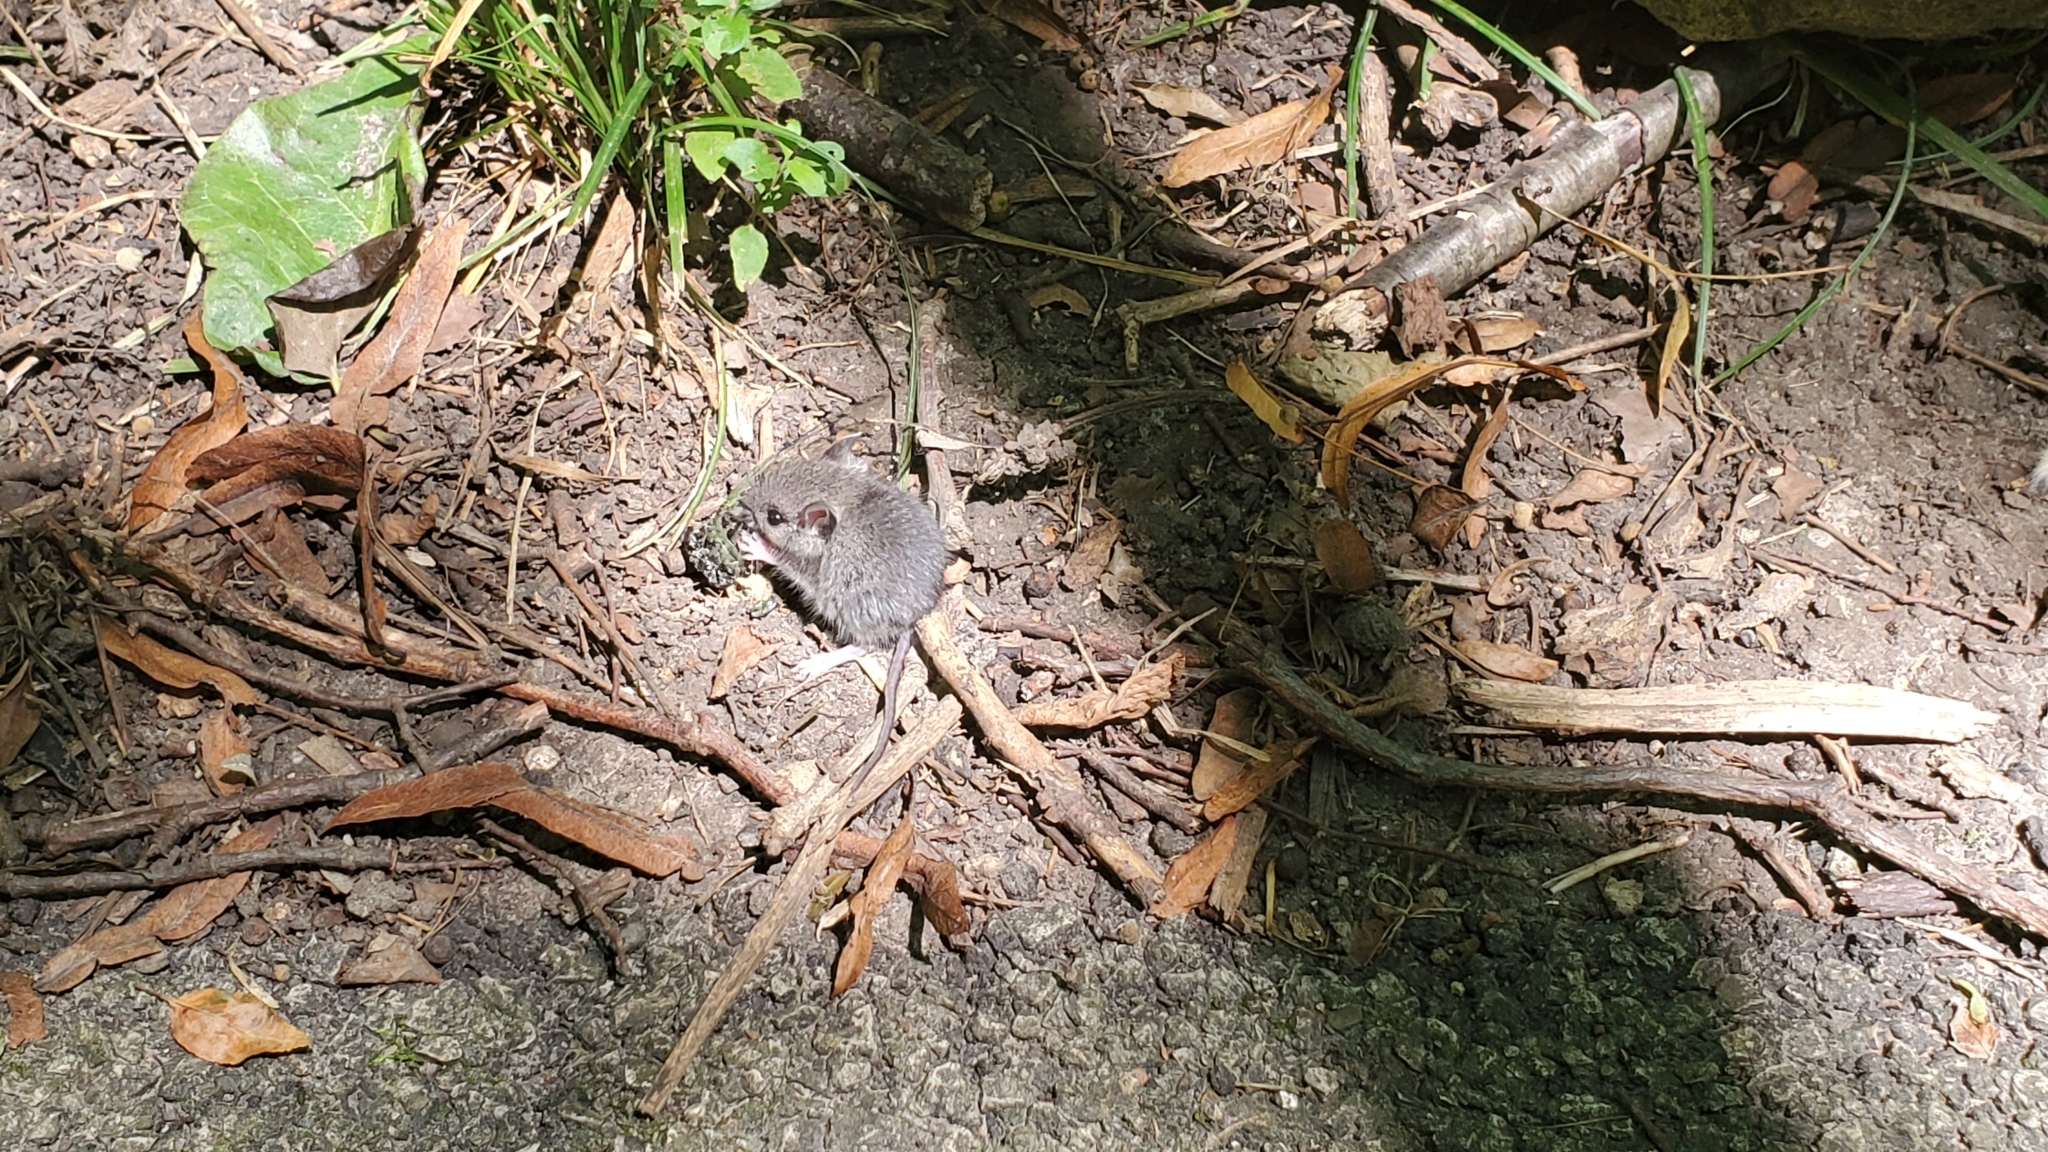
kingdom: Animalia
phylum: Chordata
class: Mammalia
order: Rodentia
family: Cricetidae
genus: Peromyscus
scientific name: Peromyscus leucopus
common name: White-footed deermouse
